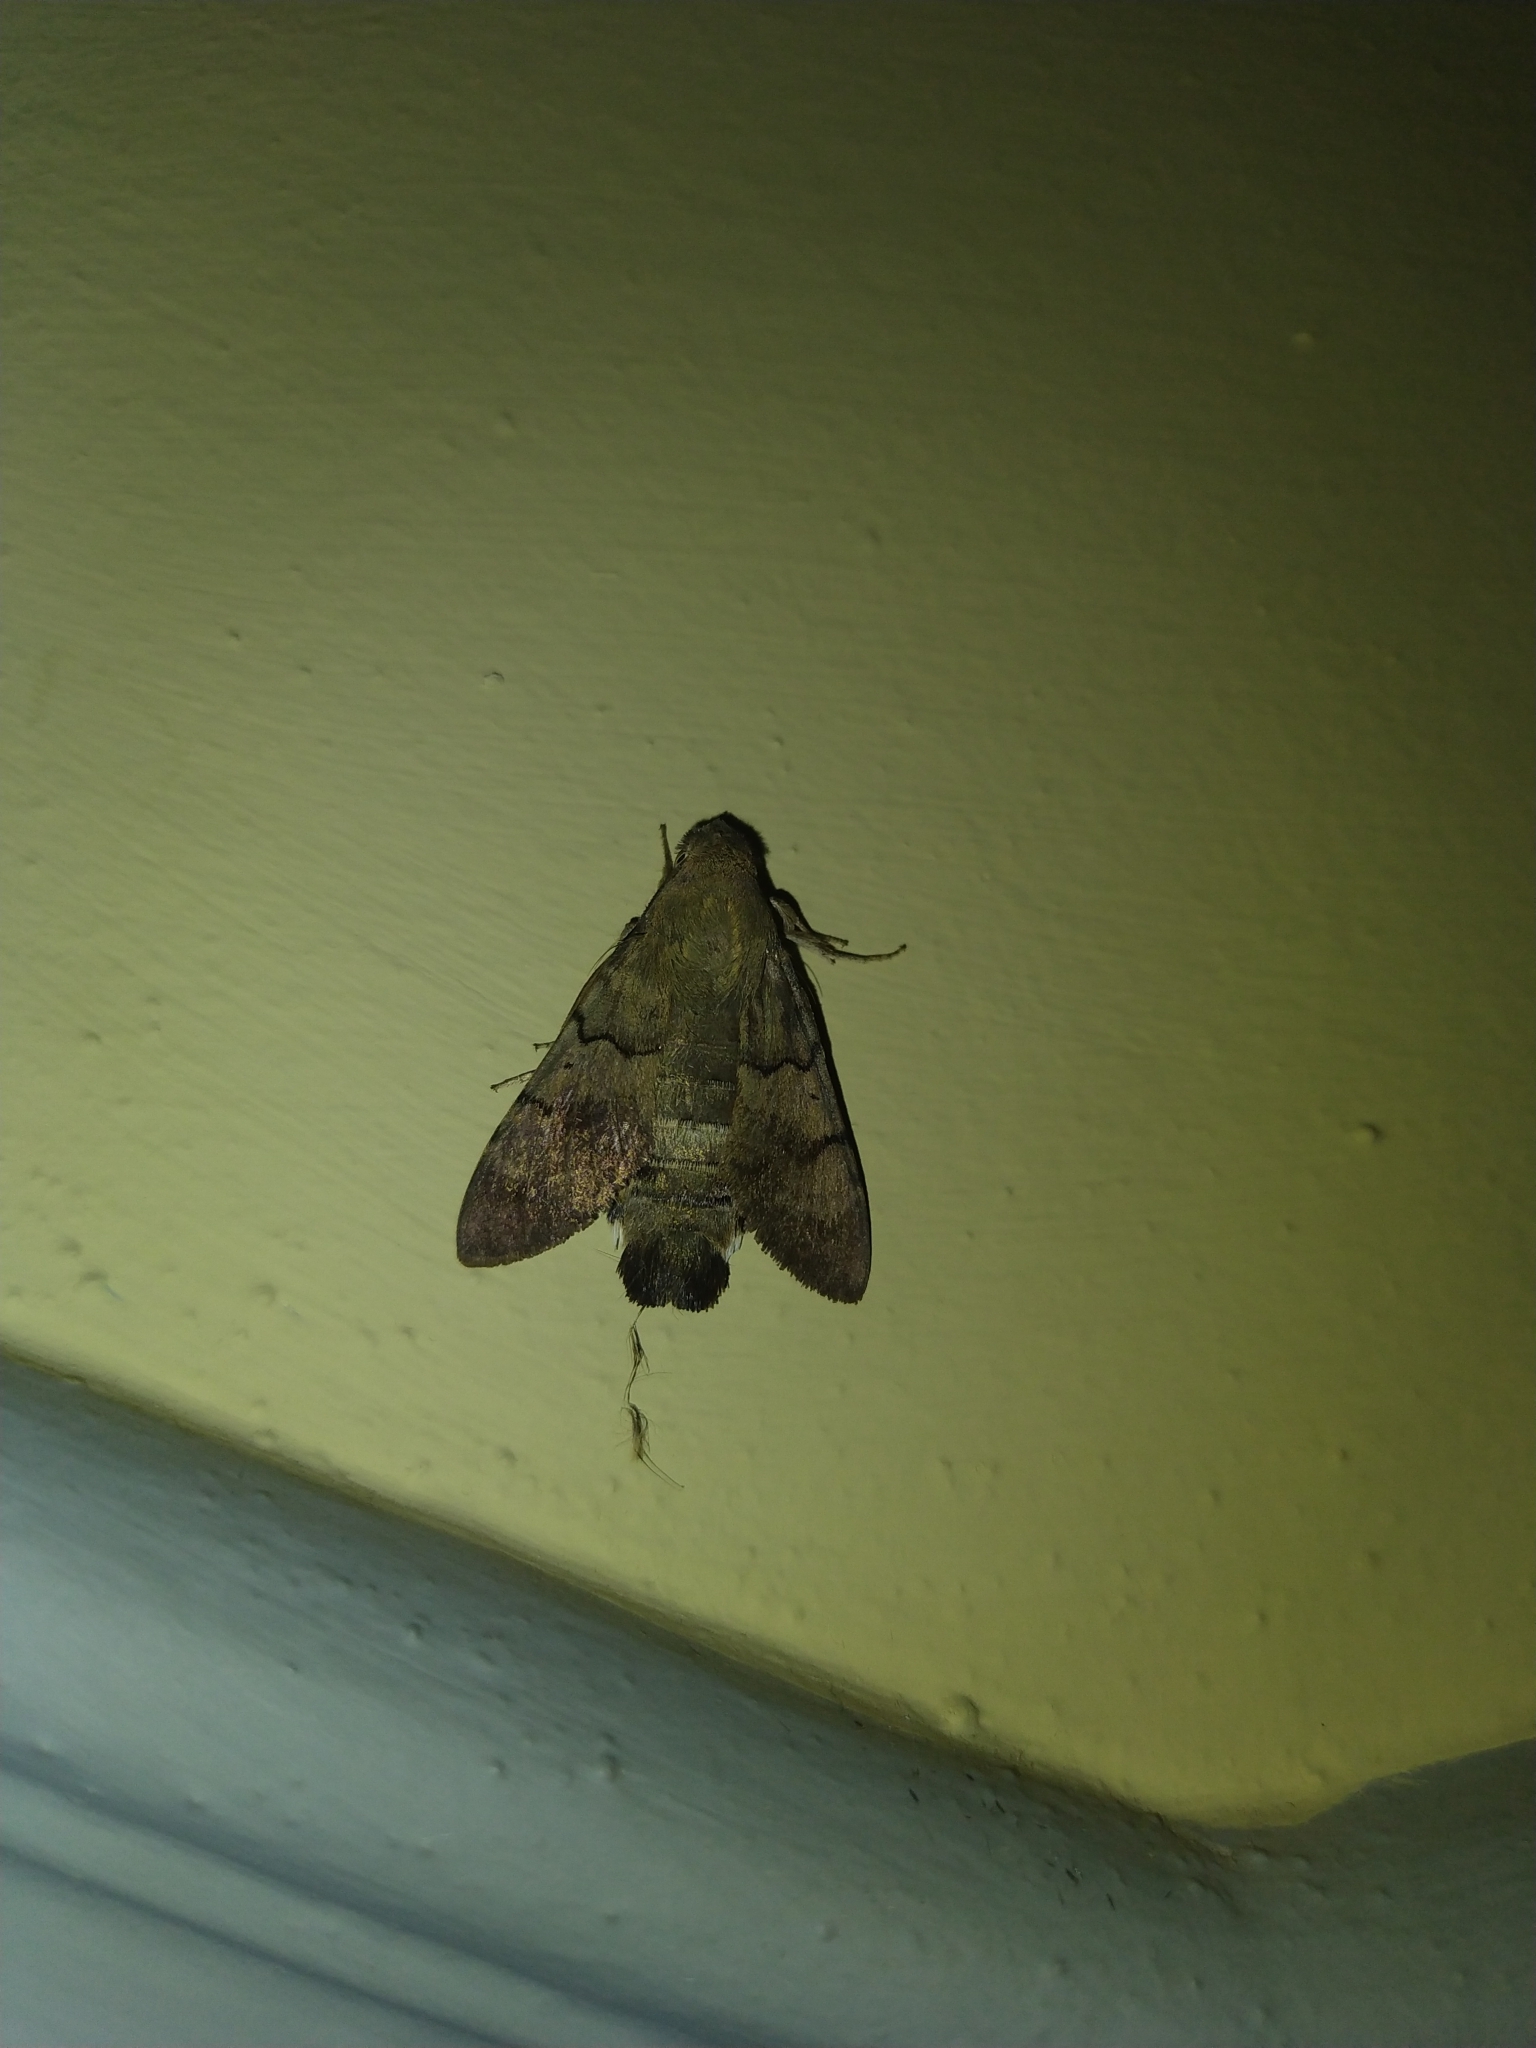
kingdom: Animalia
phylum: Arthropoda
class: Insecta
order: Lepidoptera
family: Sphingidae
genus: Macroglossum
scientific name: Macroglossum stellatarum
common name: Humming-bird hawk-moth
